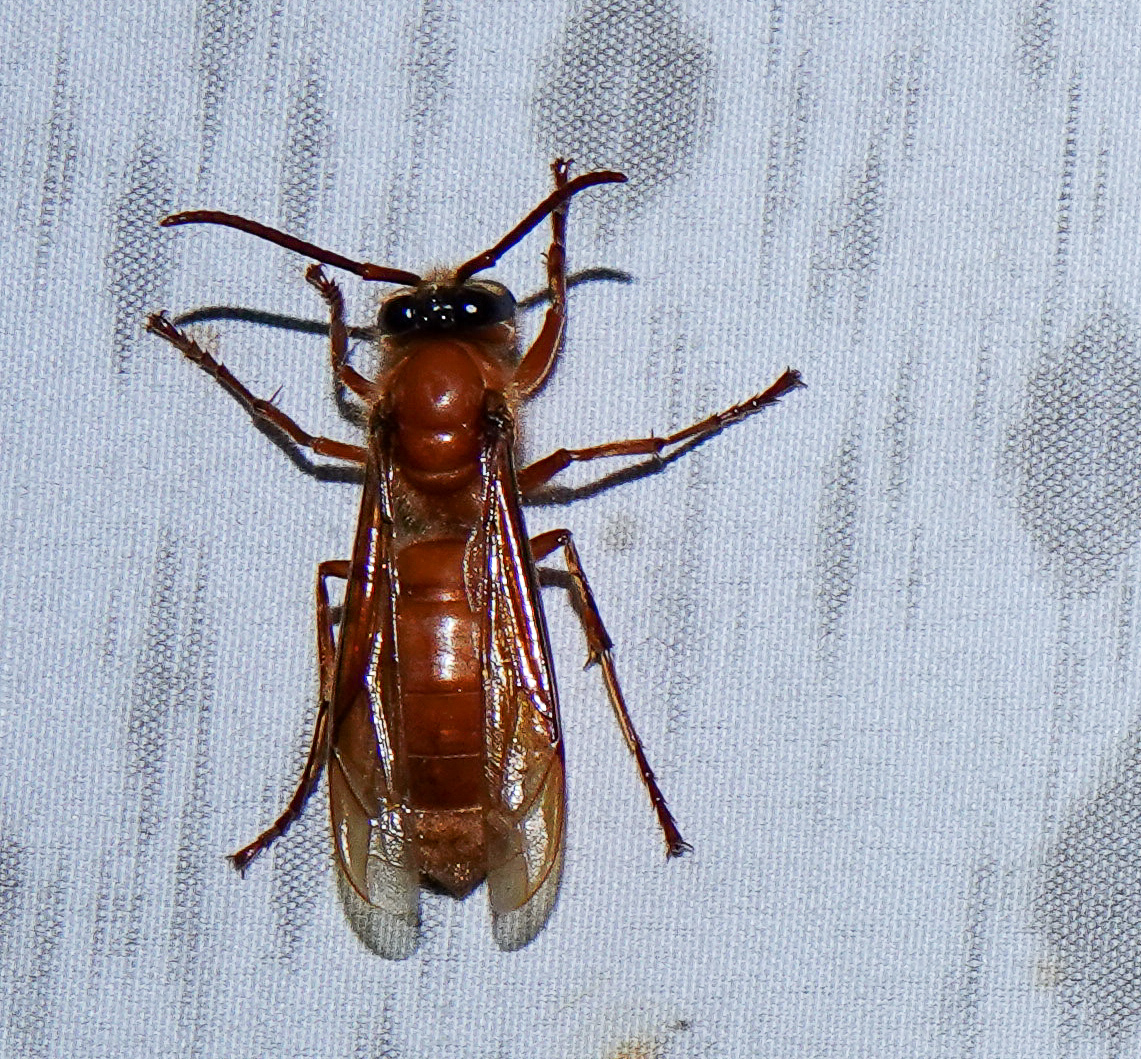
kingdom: Animalia
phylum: Arthropoda
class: Insecta
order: Hymenoptera
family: Vespidae
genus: Provespa
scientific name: Provespa barthelemyi
